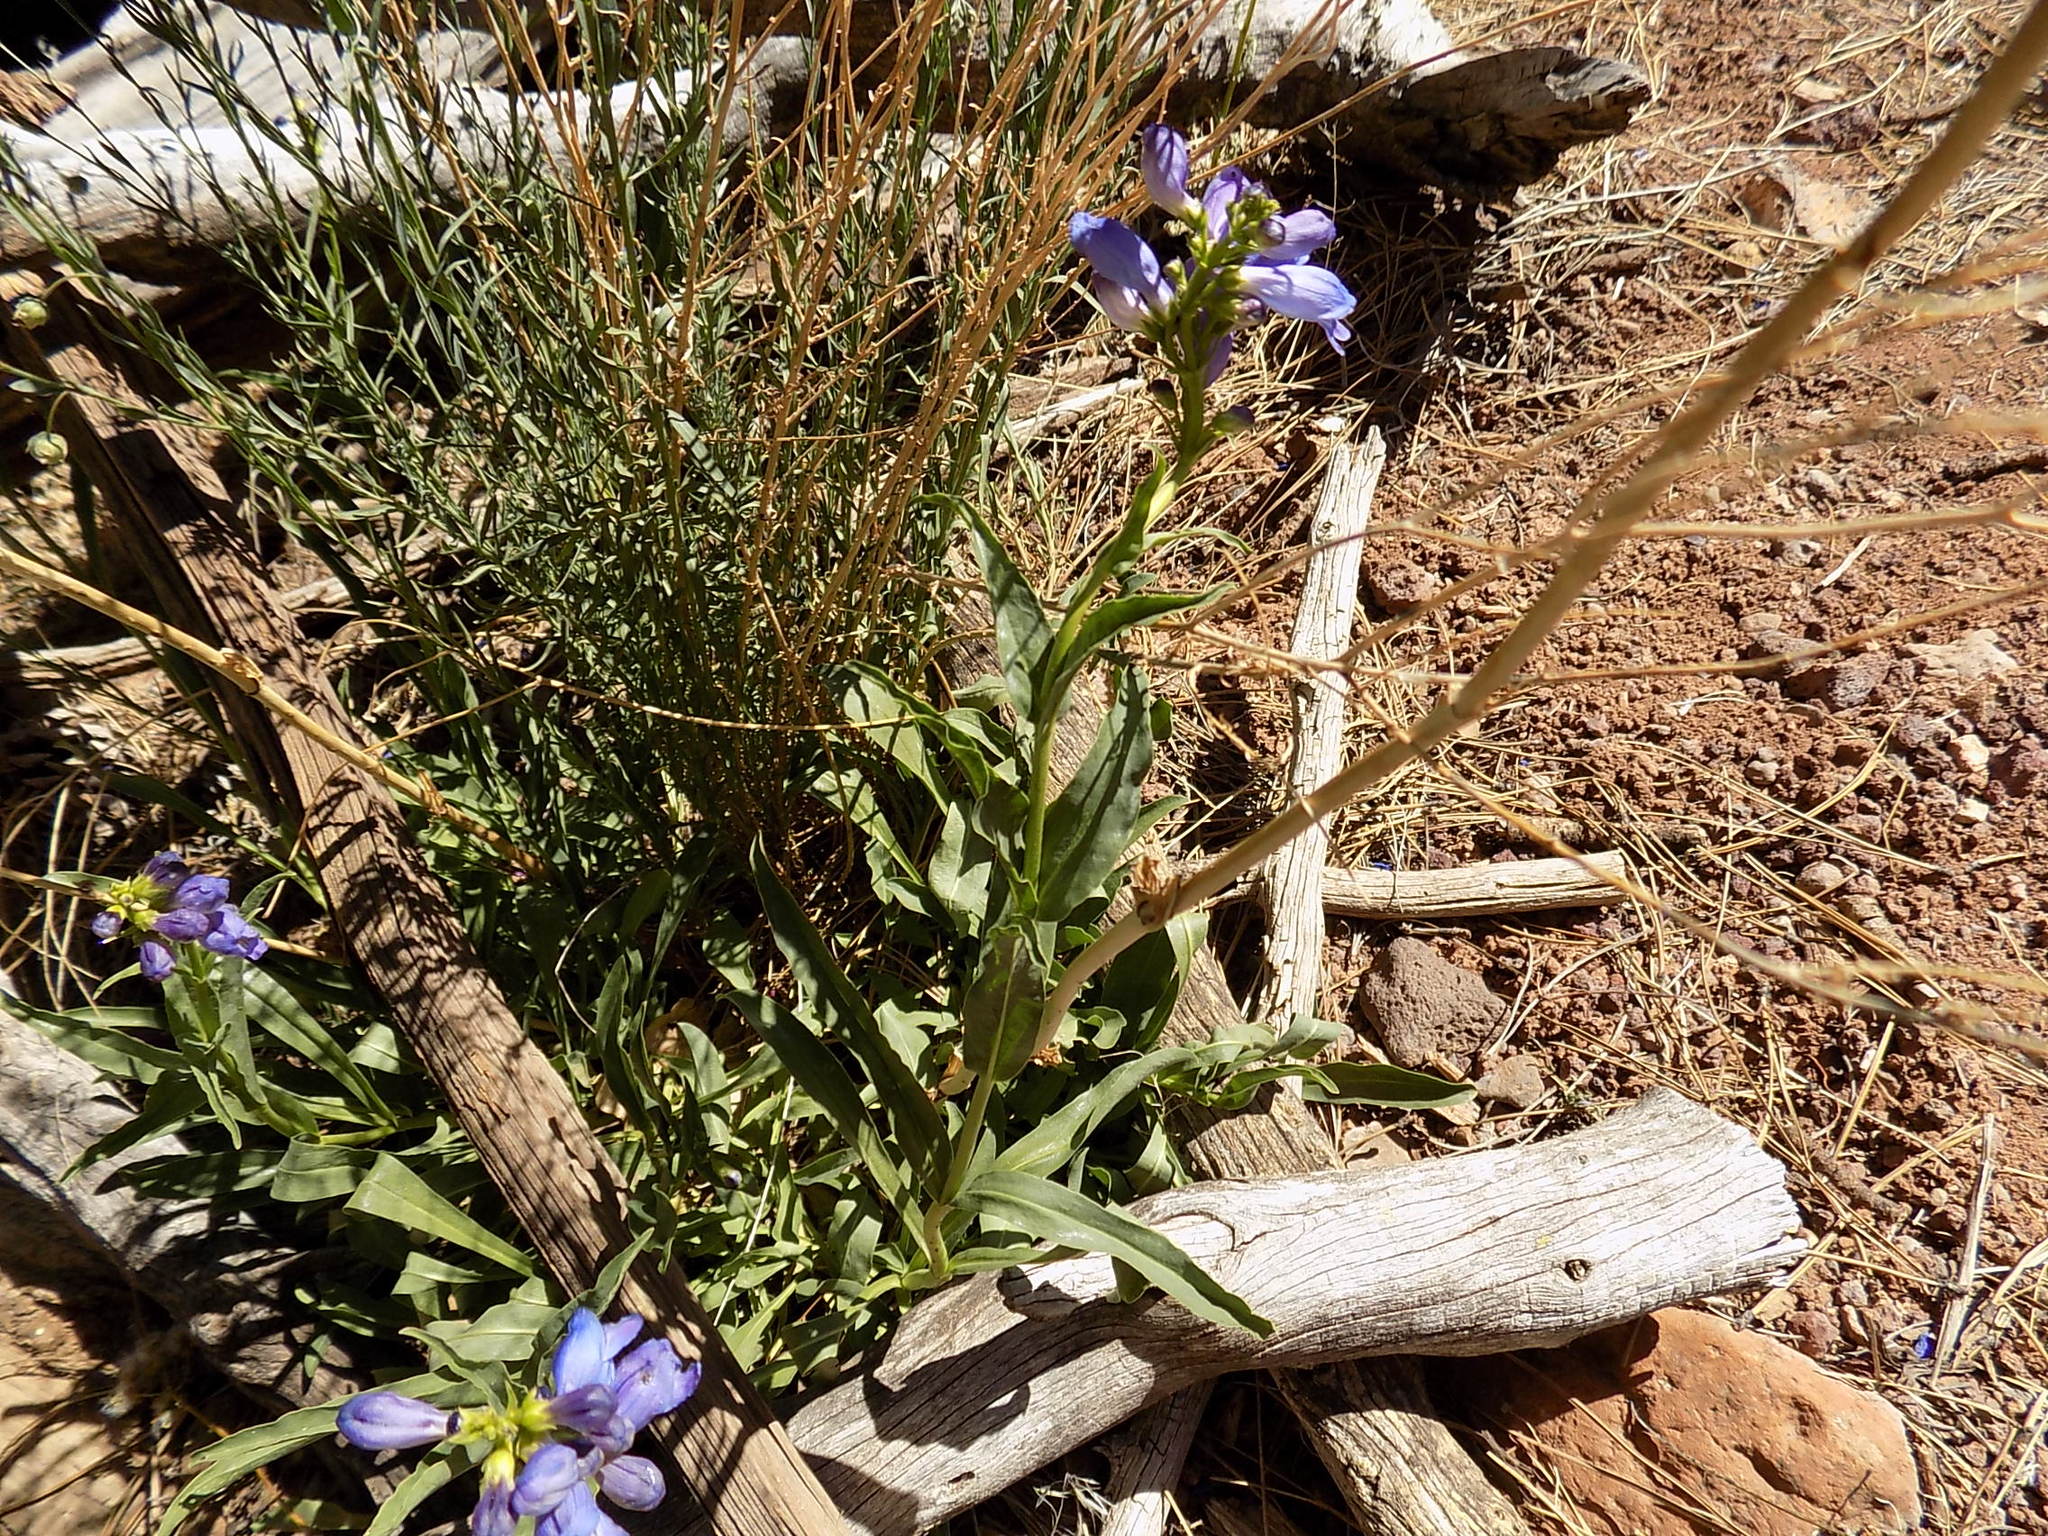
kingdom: Plantae
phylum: Tracheophyta
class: Magnoliopsida
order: Lamiales
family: Plantaginaceae
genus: Penstemon
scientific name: Penstemon strictus
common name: Rocky mountain penstemon
